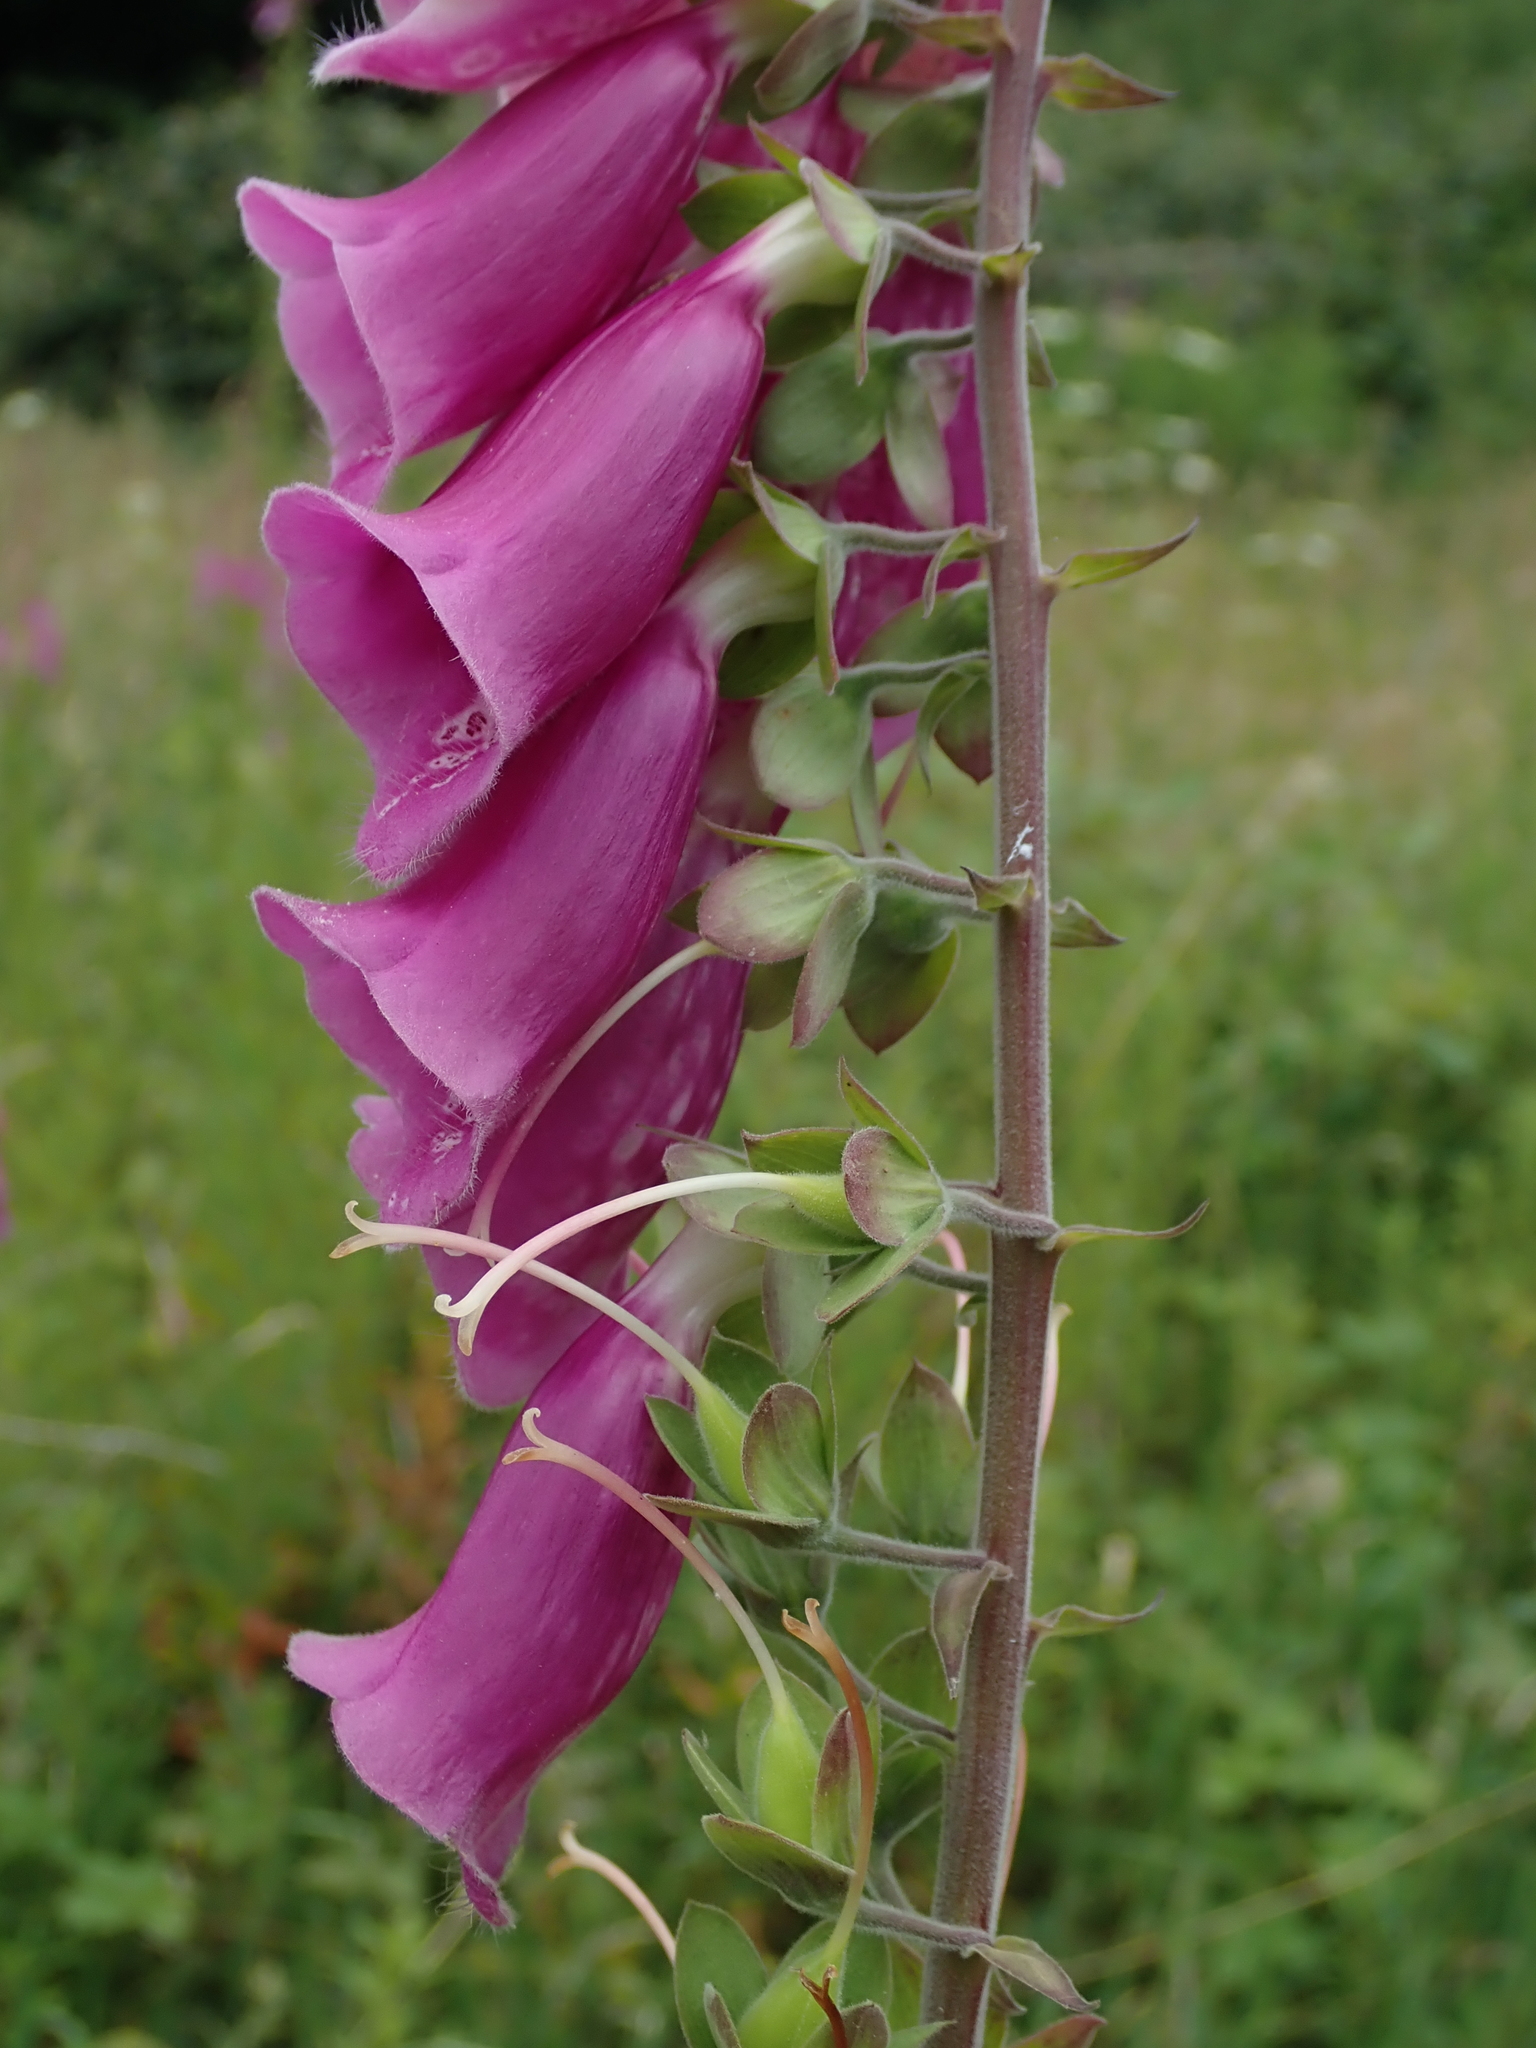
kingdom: Plantae
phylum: Tracheophyta
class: Magnoliopsida
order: Lamiales
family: Plantaginaceae
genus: Digitalis
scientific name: Digitalis purpurea
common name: Foxglove
